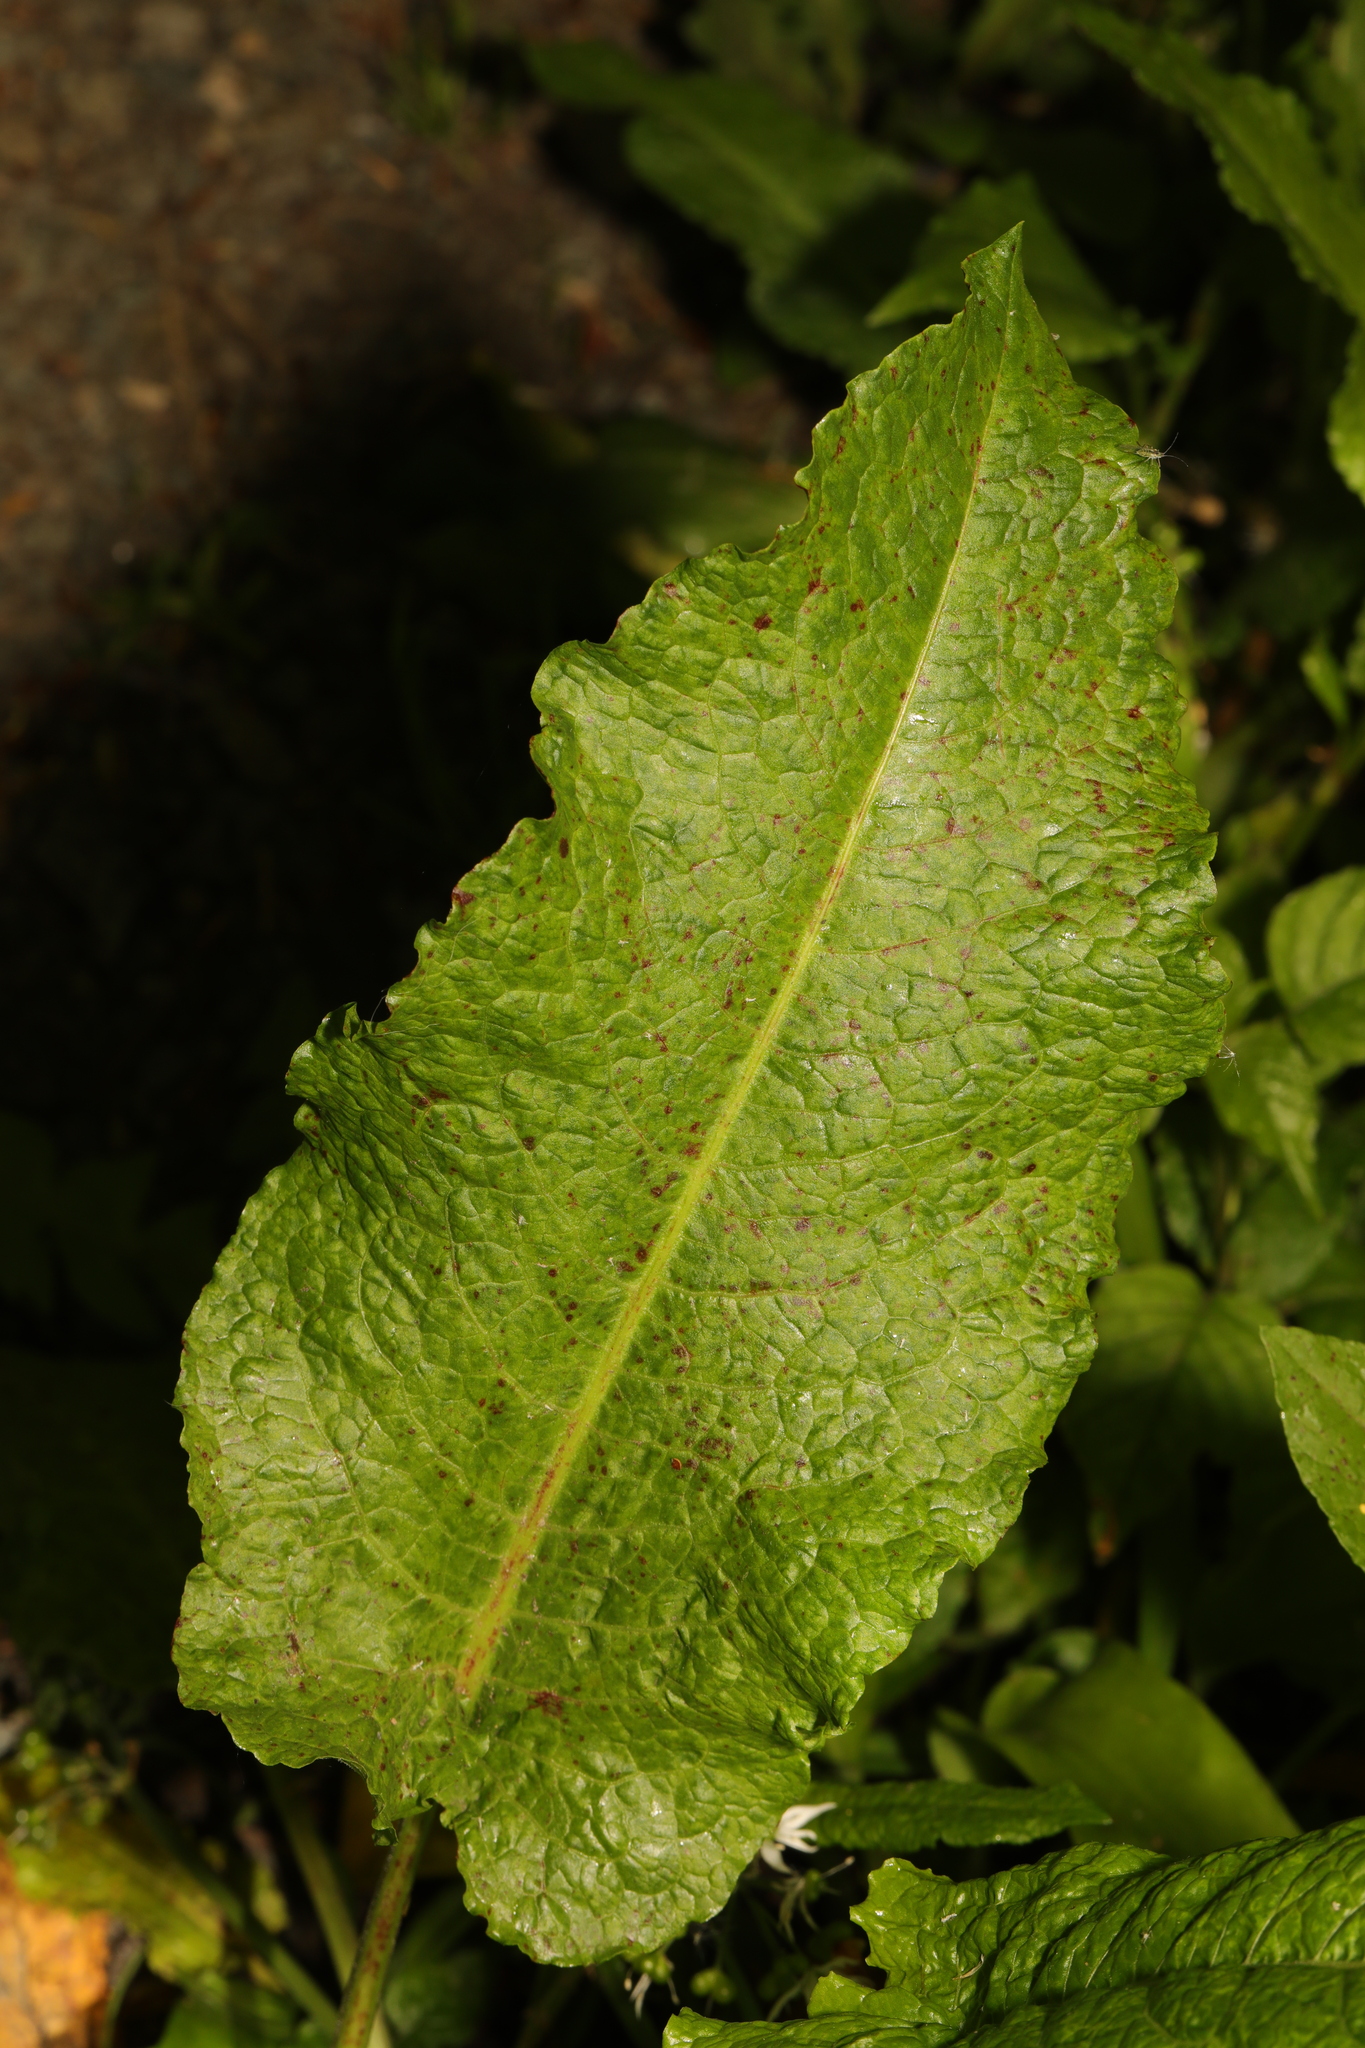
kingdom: Plantae
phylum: Tracheophyta
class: Magnoliopsida
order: Caryophyllales
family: Polygonaceae
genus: Rumex
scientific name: Rumex obtusifolius
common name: Bitter dock
